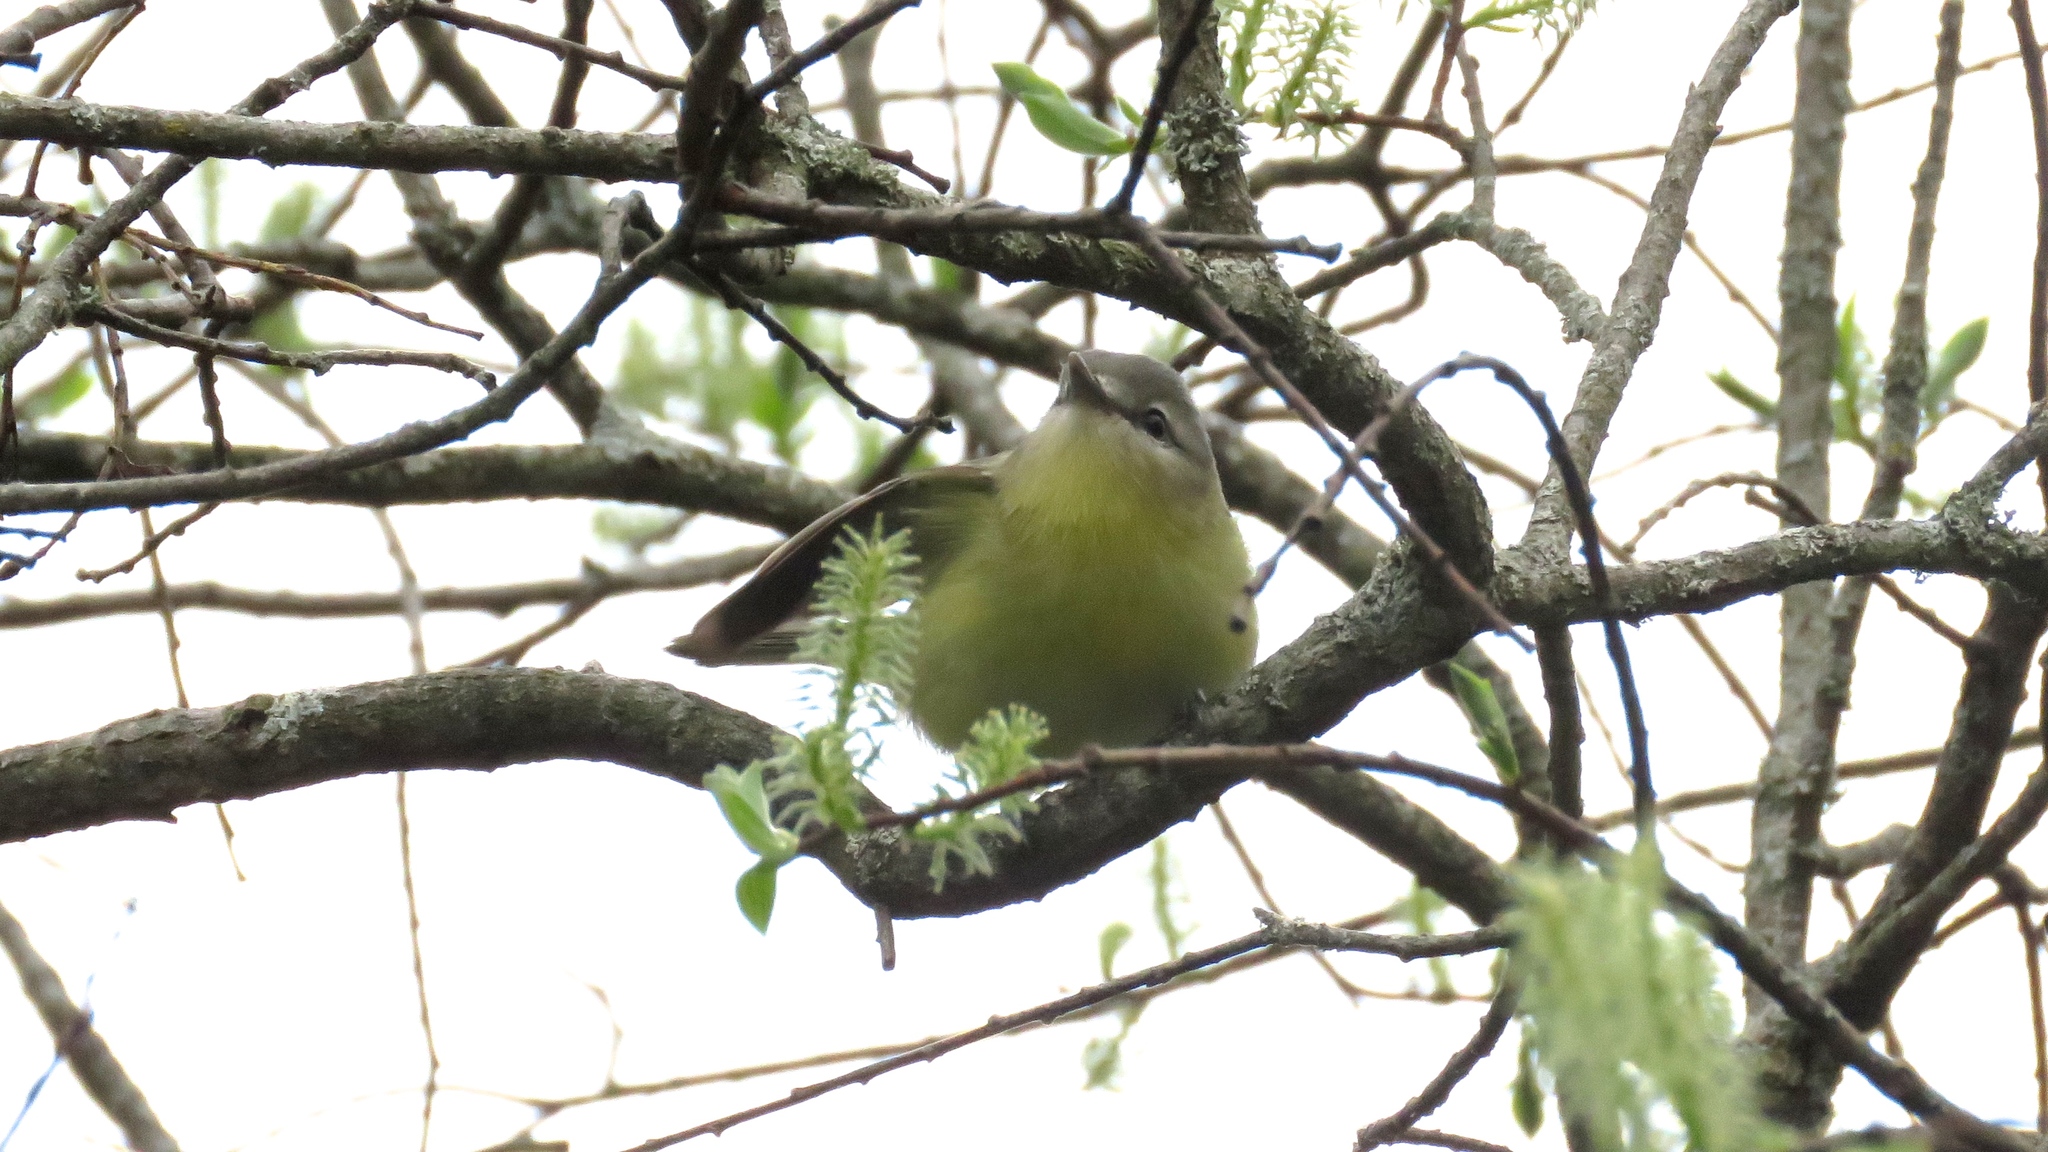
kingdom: Animalia
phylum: Chordata
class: Aves
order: Passeriformes
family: Vireonidae
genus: Vireo
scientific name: Vireo philadelphicus
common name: Philadelphia vireo
